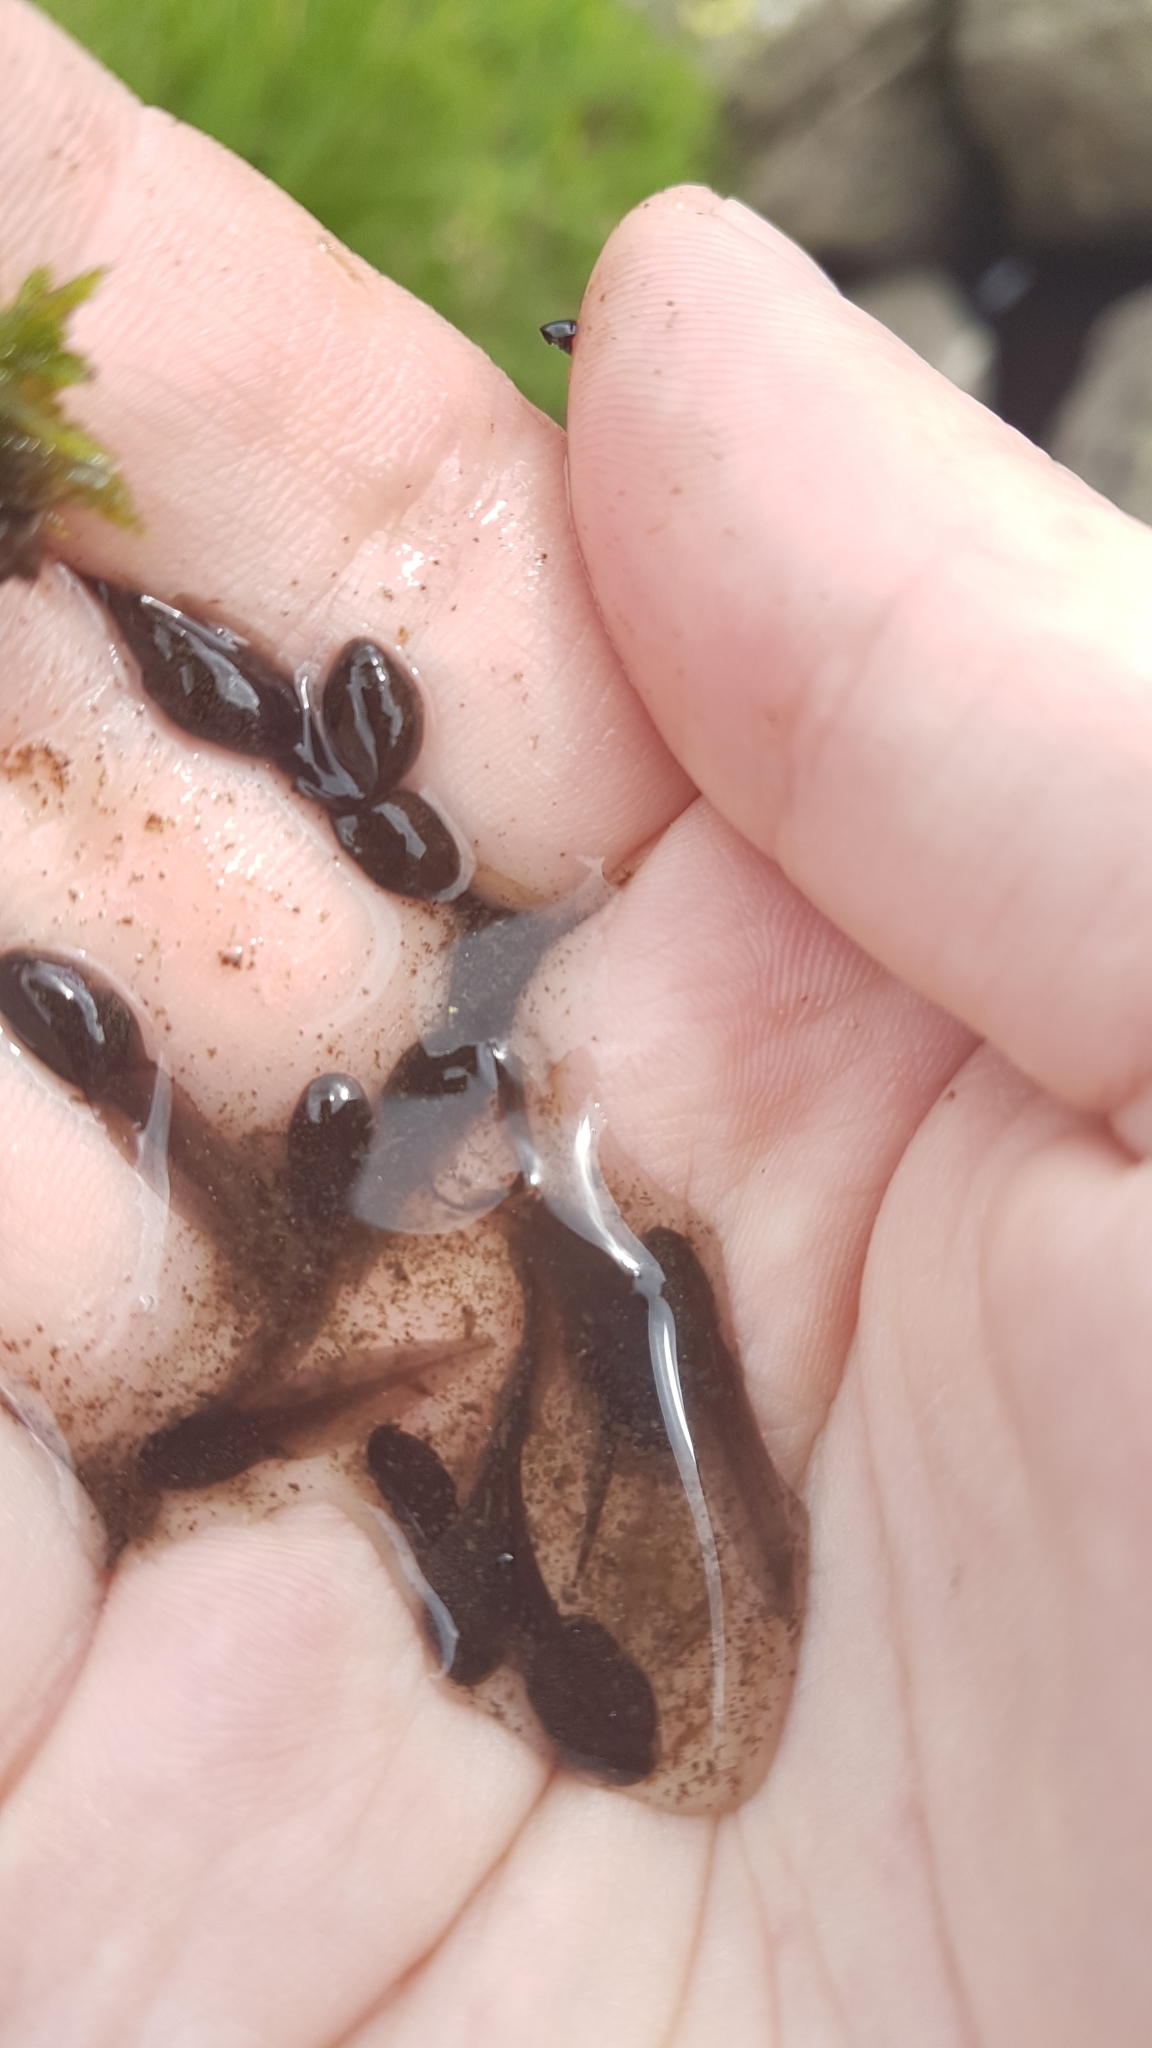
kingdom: Animalia
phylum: Chordata
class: Amphibia
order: Anura
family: Ranidae
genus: Rana
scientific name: Rana temporaria
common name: Common frog
